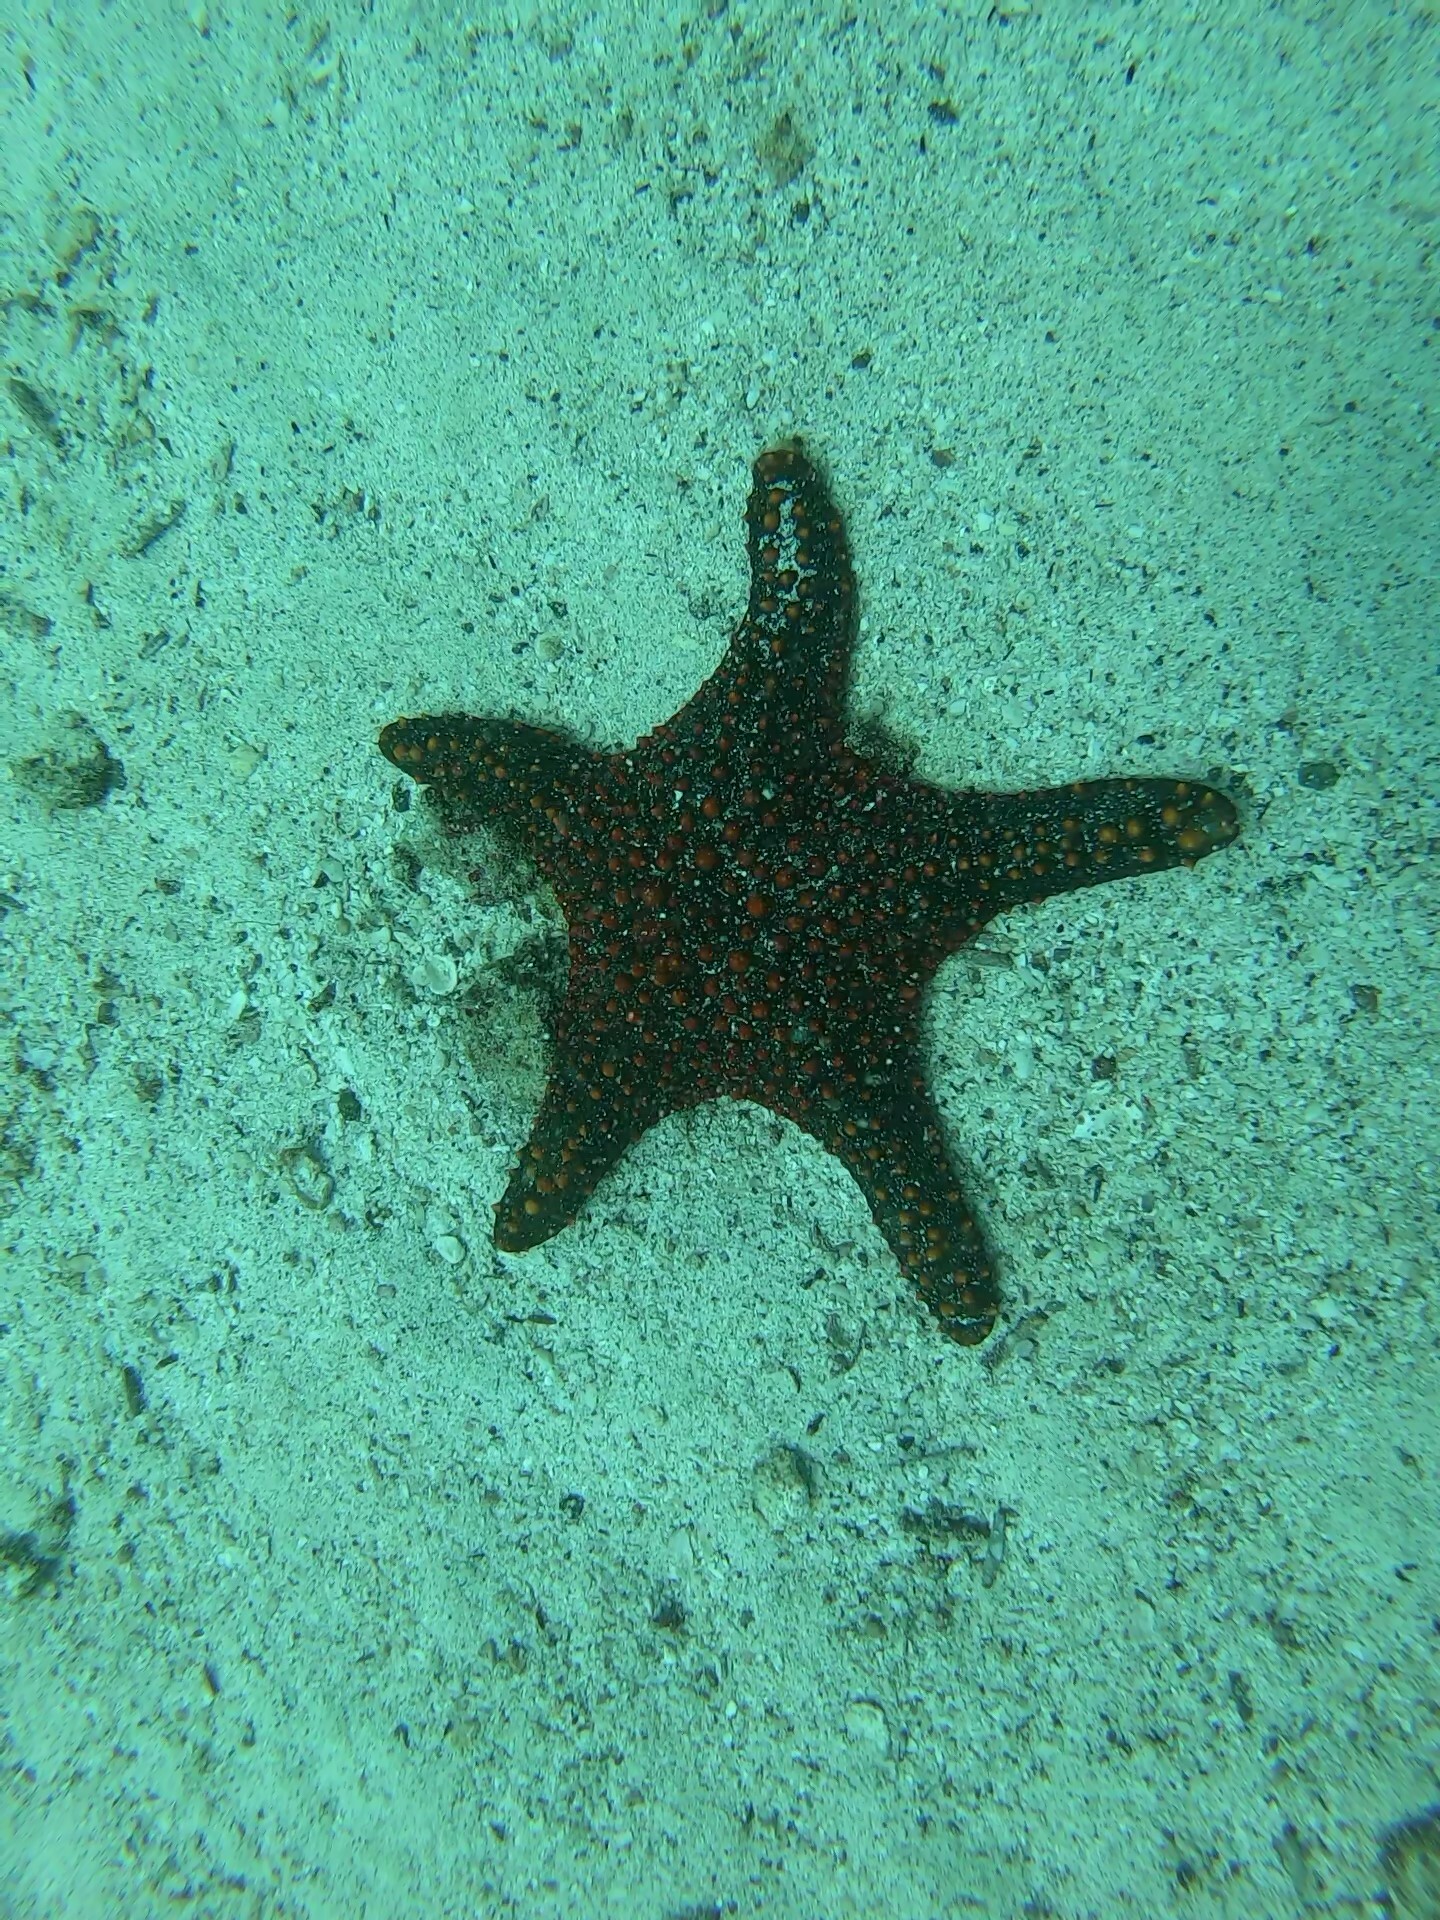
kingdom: Animalia
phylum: Echinodermata
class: Asteroidea
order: Valvatida
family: Oreasteridae
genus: Pentaceraster
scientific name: Pentaceraster cumingi
